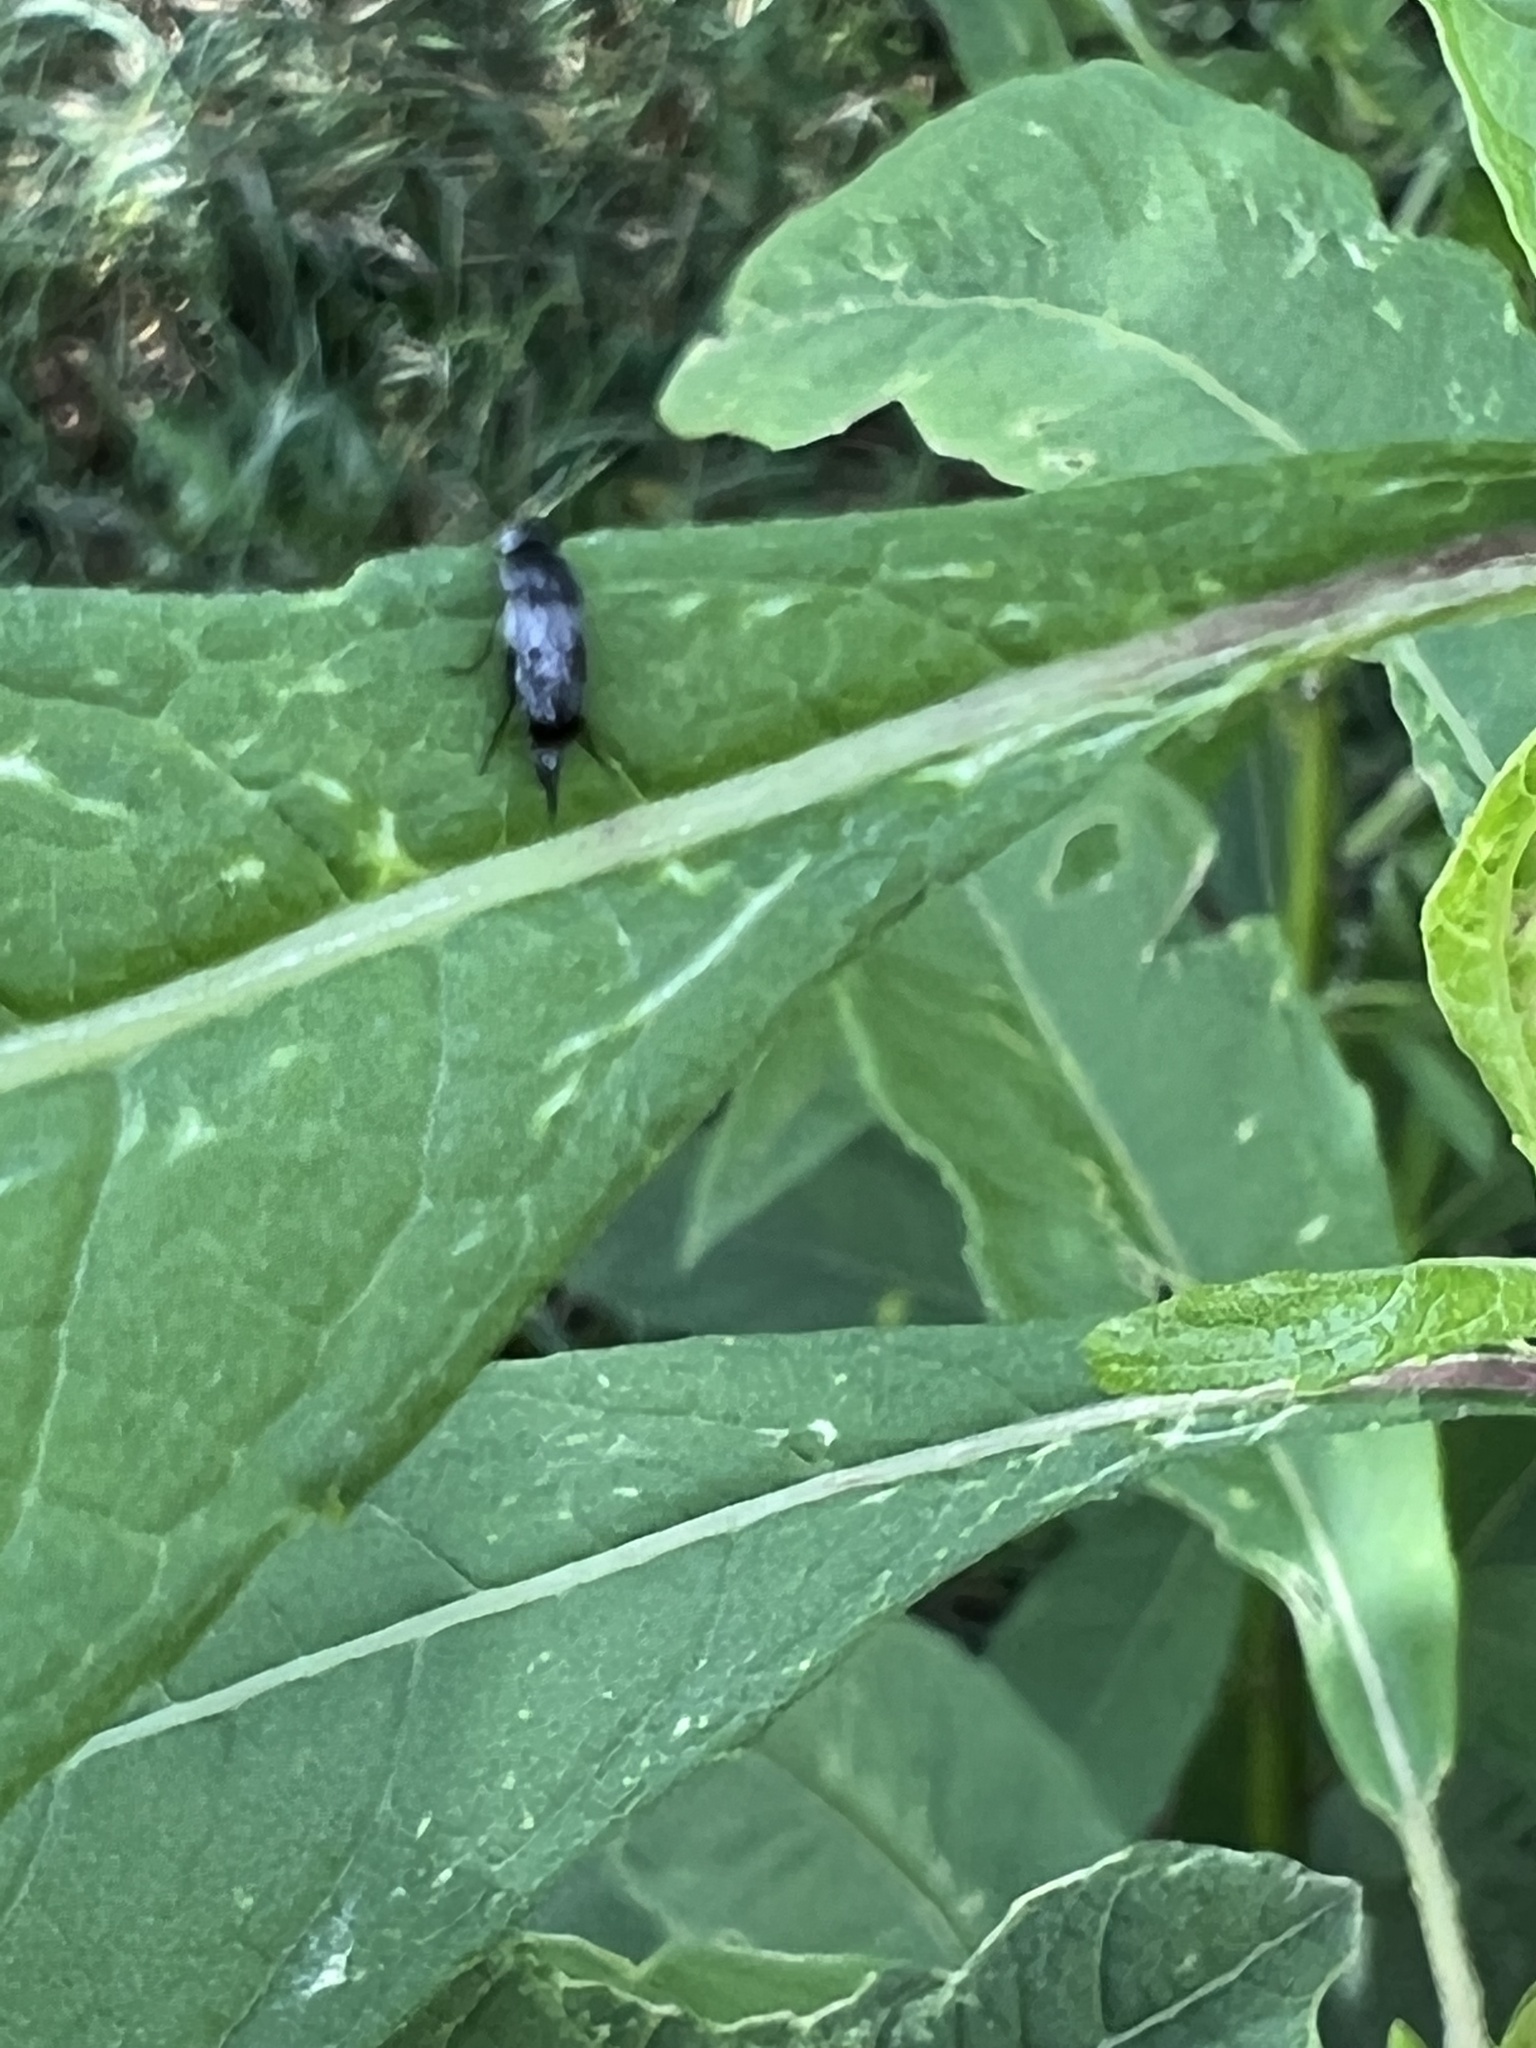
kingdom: Animalia
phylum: Arthropoda
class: Insecta
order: Coleoptera
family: Mordellidae
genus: Mordella
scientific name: Mordella marginata
